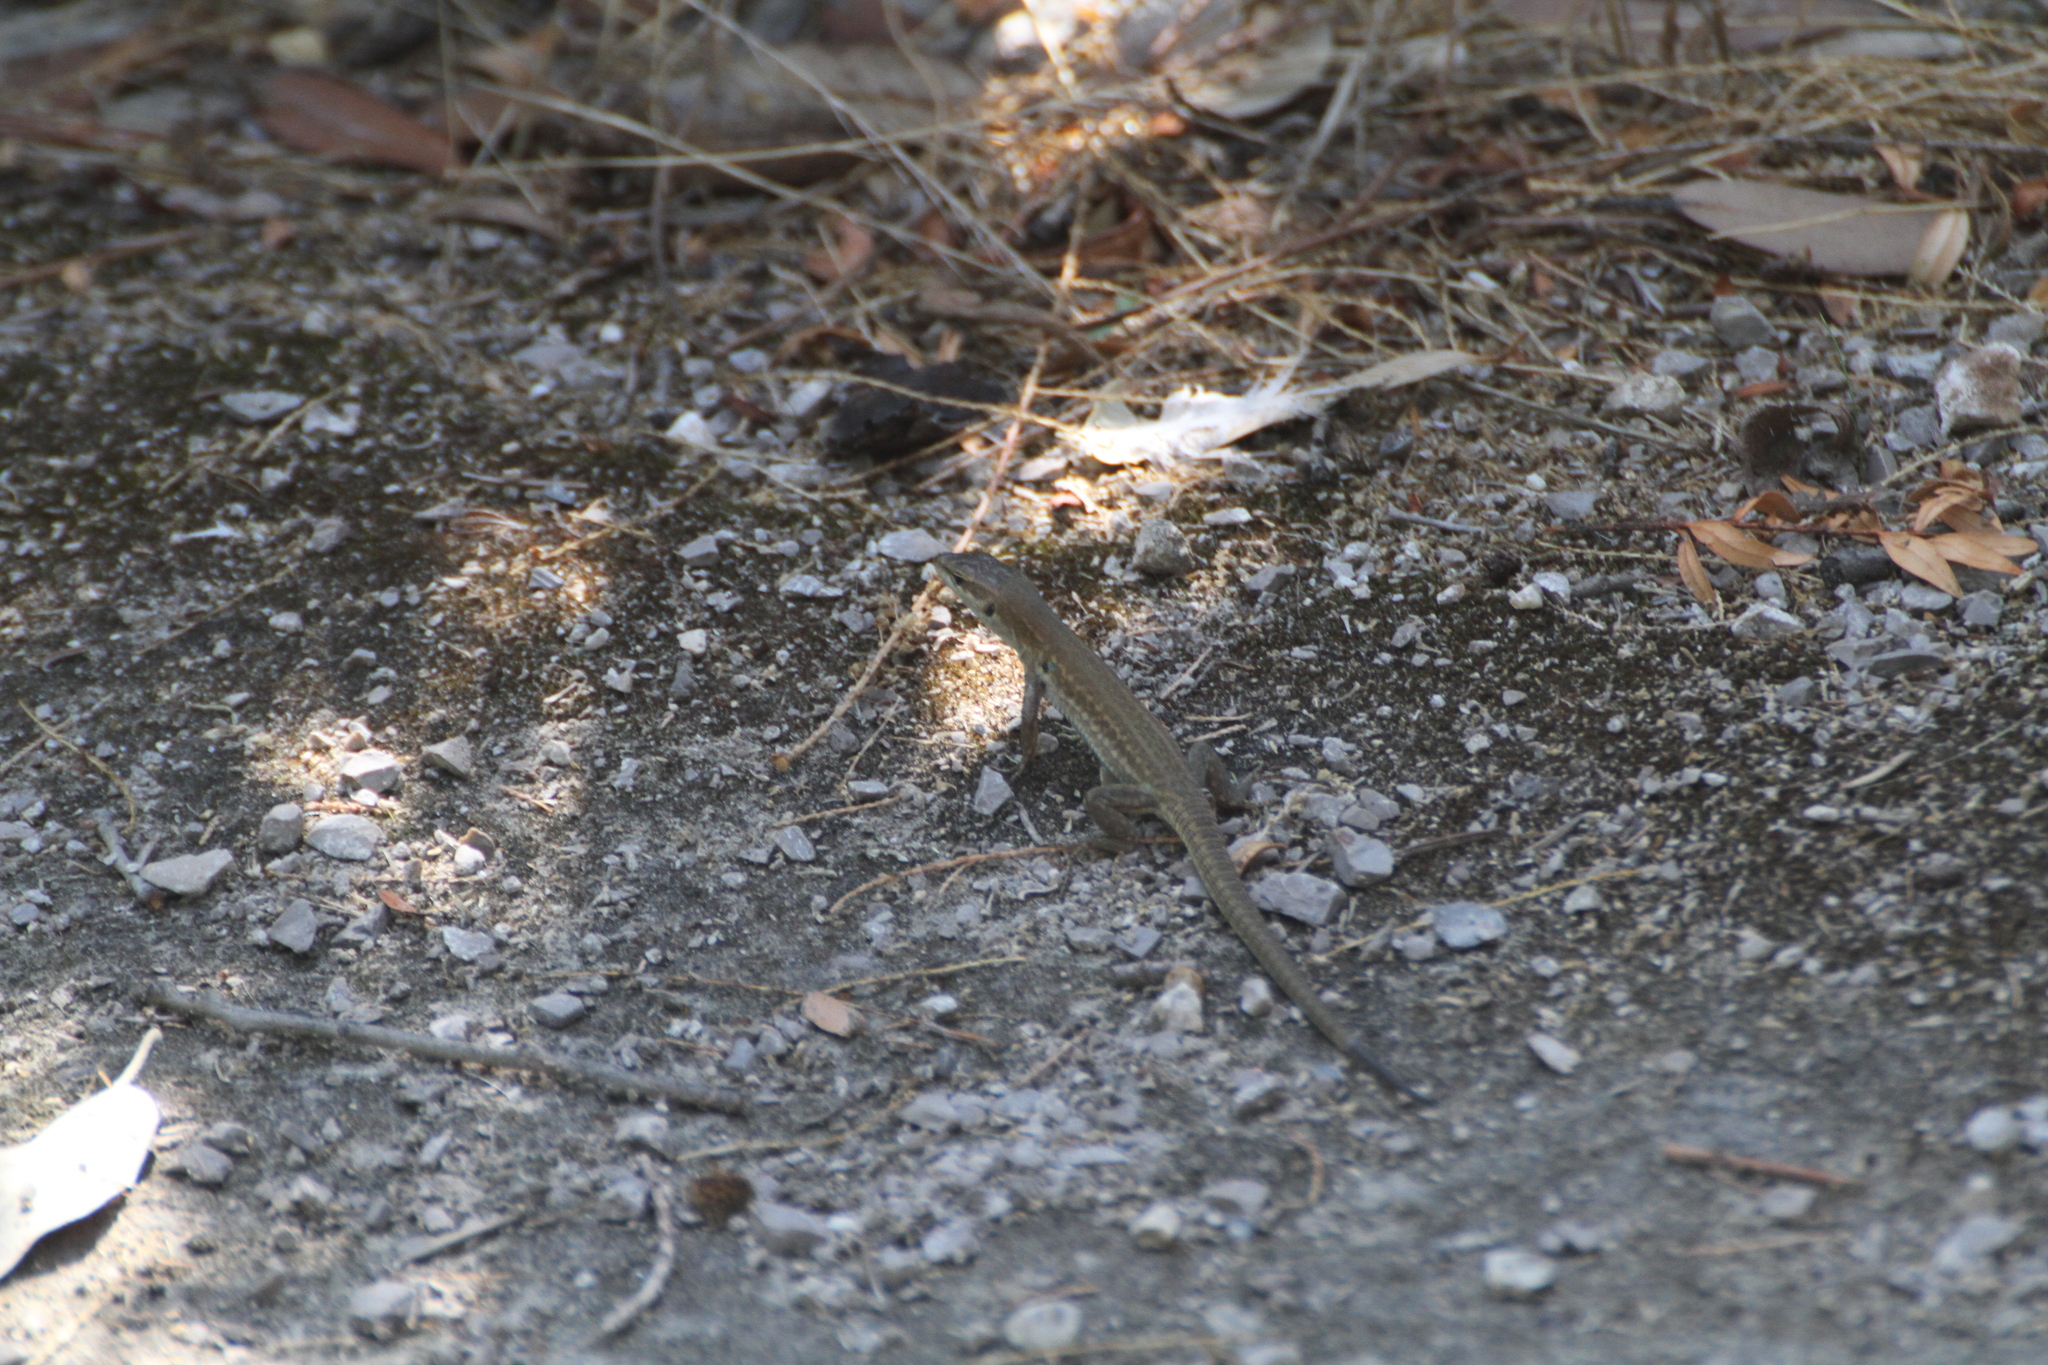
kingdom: Animalia
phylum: Chordata
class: Squamata
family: Lacertidae
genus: Podarcis
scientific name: Podarcis siculus
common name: Italian wall lizard
